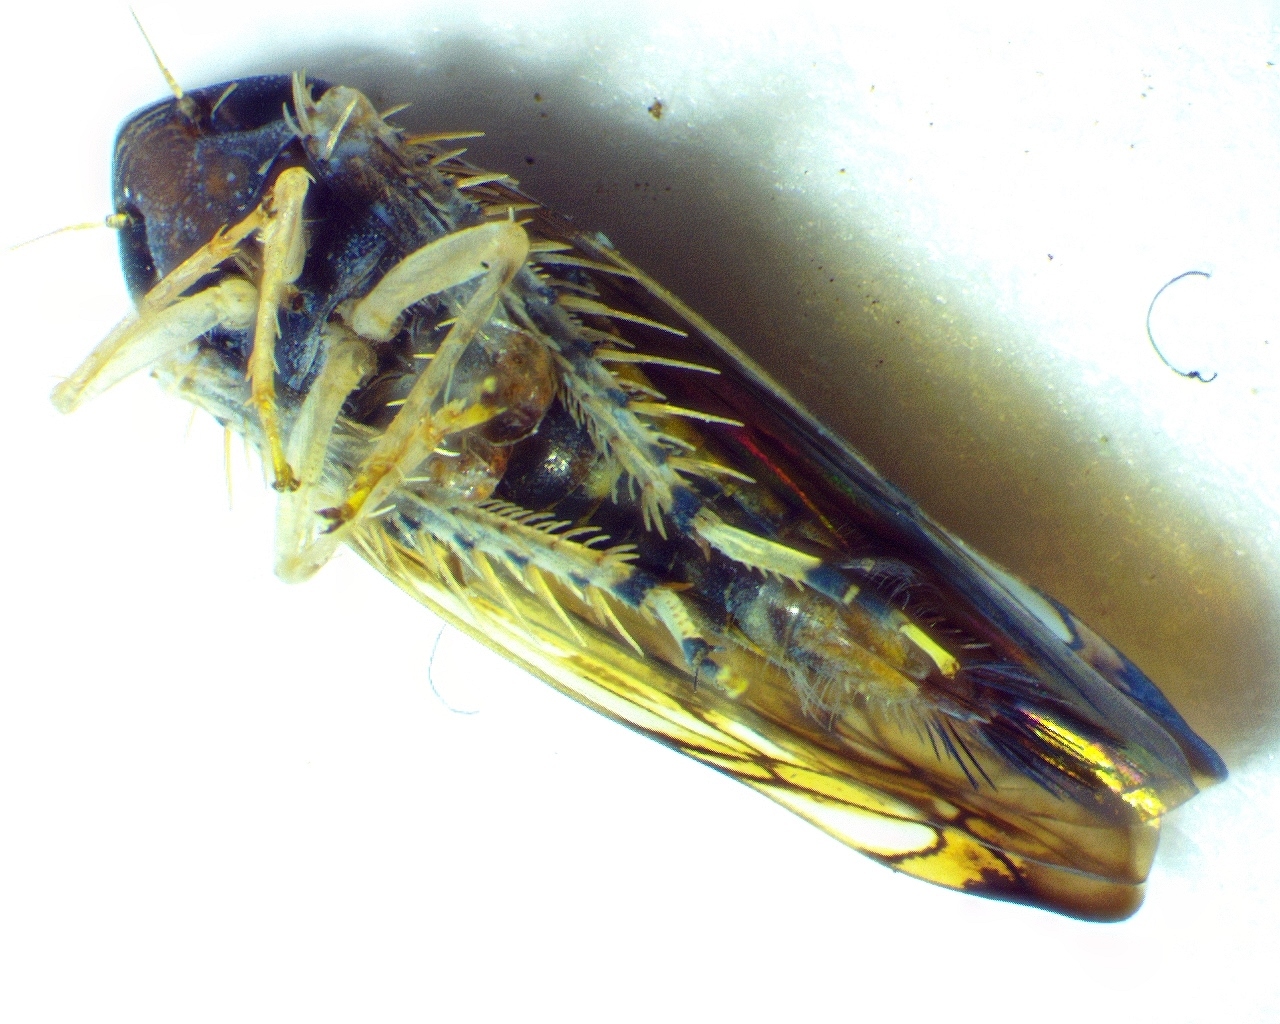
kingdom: Animalia
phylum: Arthropoda
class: Insecta
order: Hemiptera
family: Cicadellidae
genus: Scaphoideus
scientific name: Scaphoideus immistus
